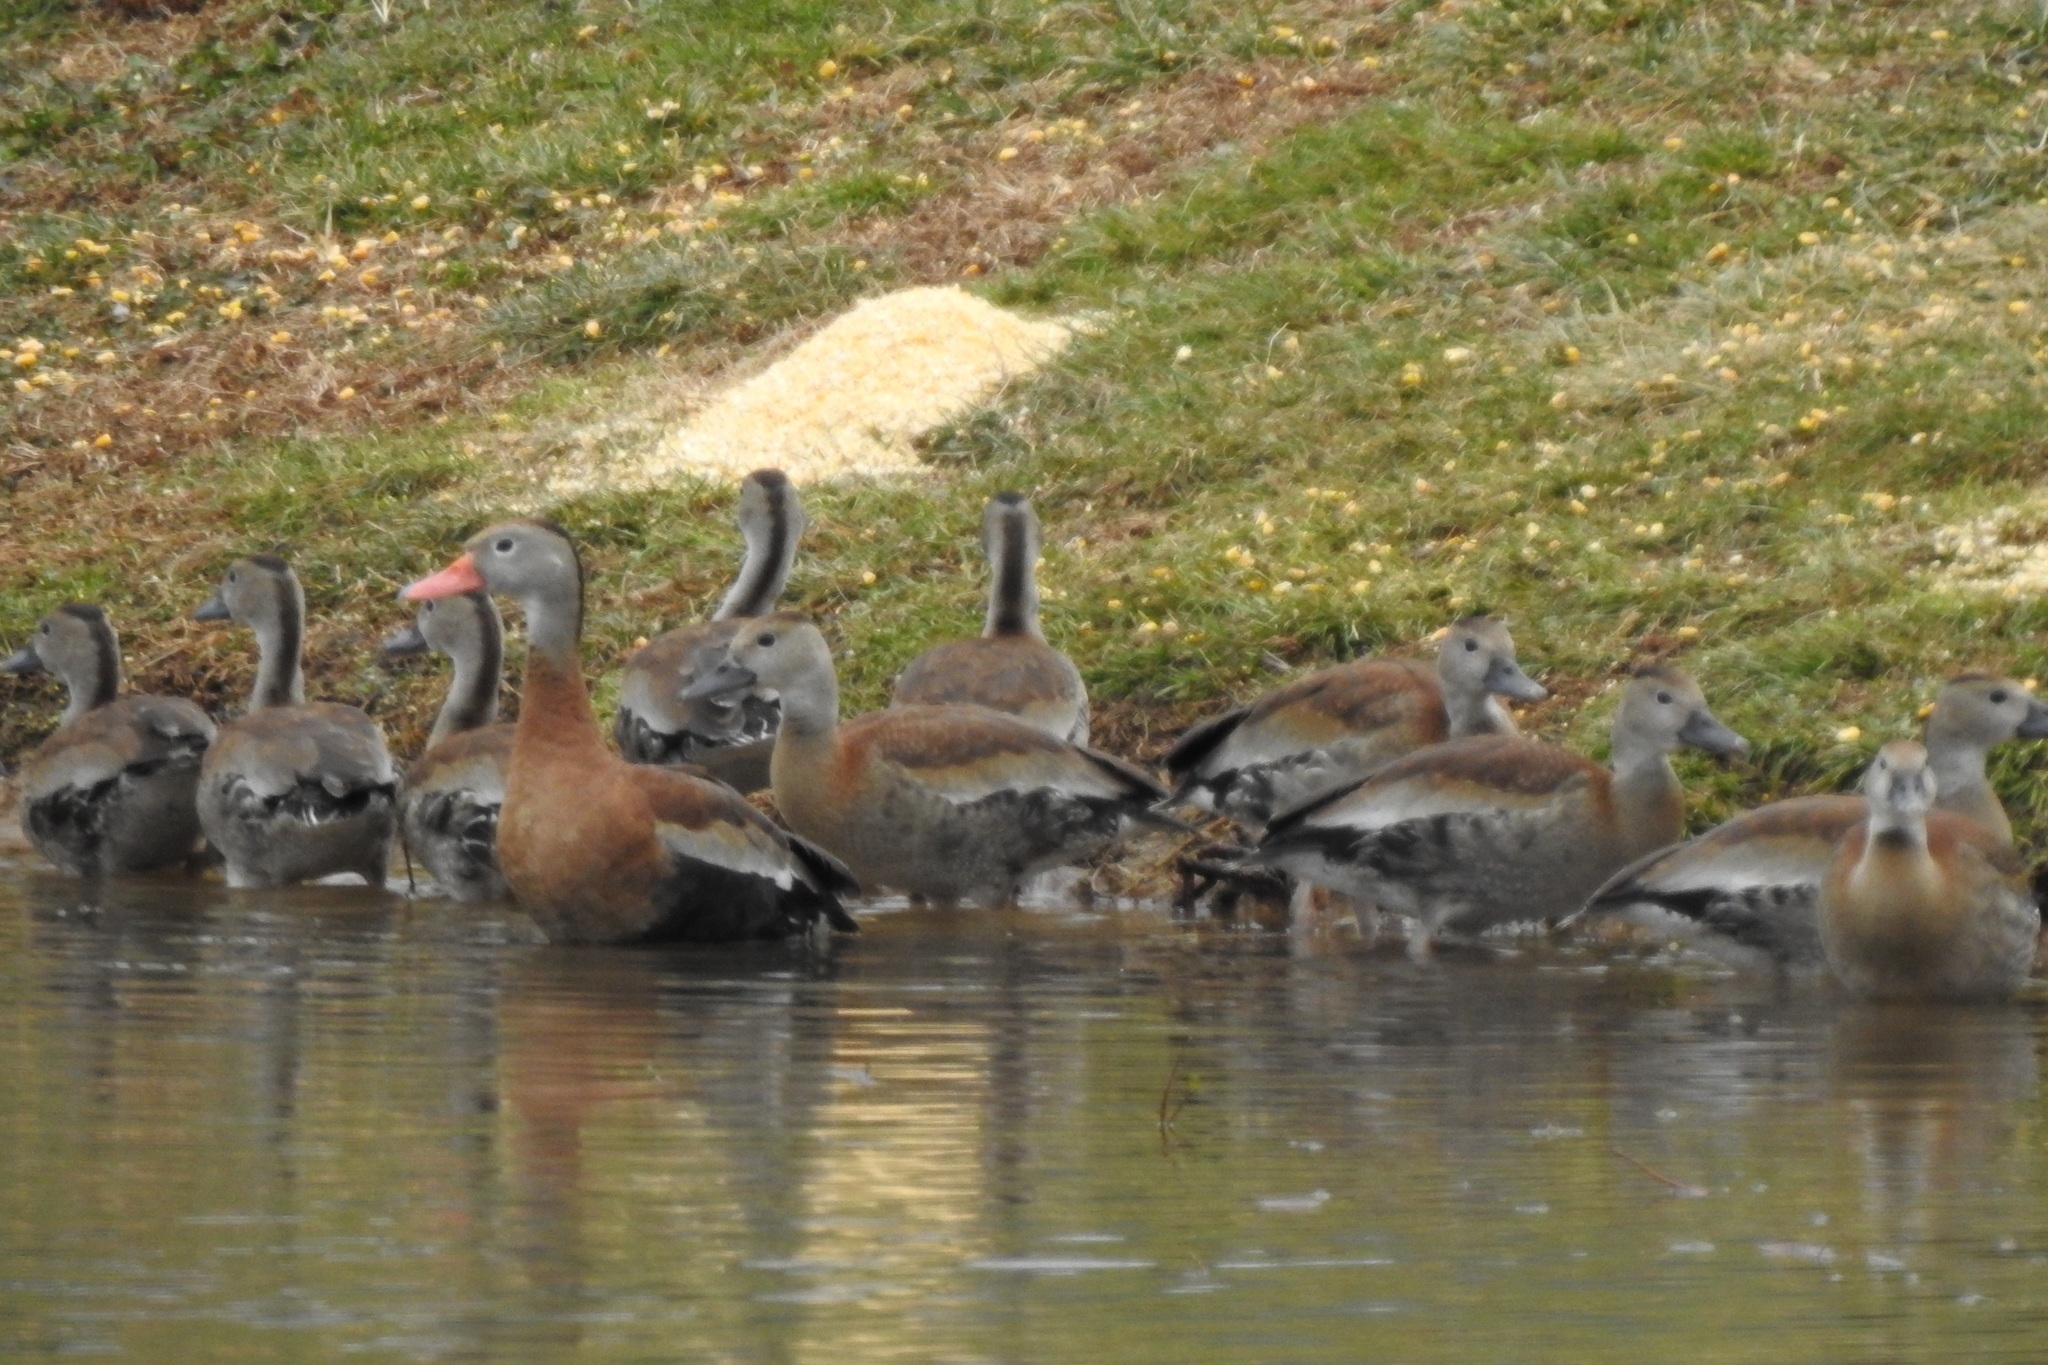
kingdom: Animalia
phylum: Chordata
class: Aves
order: Anseriformes
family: Anatidae
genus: Dendrocygna
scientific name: Dendrocygna autumnalis
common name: Black-bellied whistling duck
